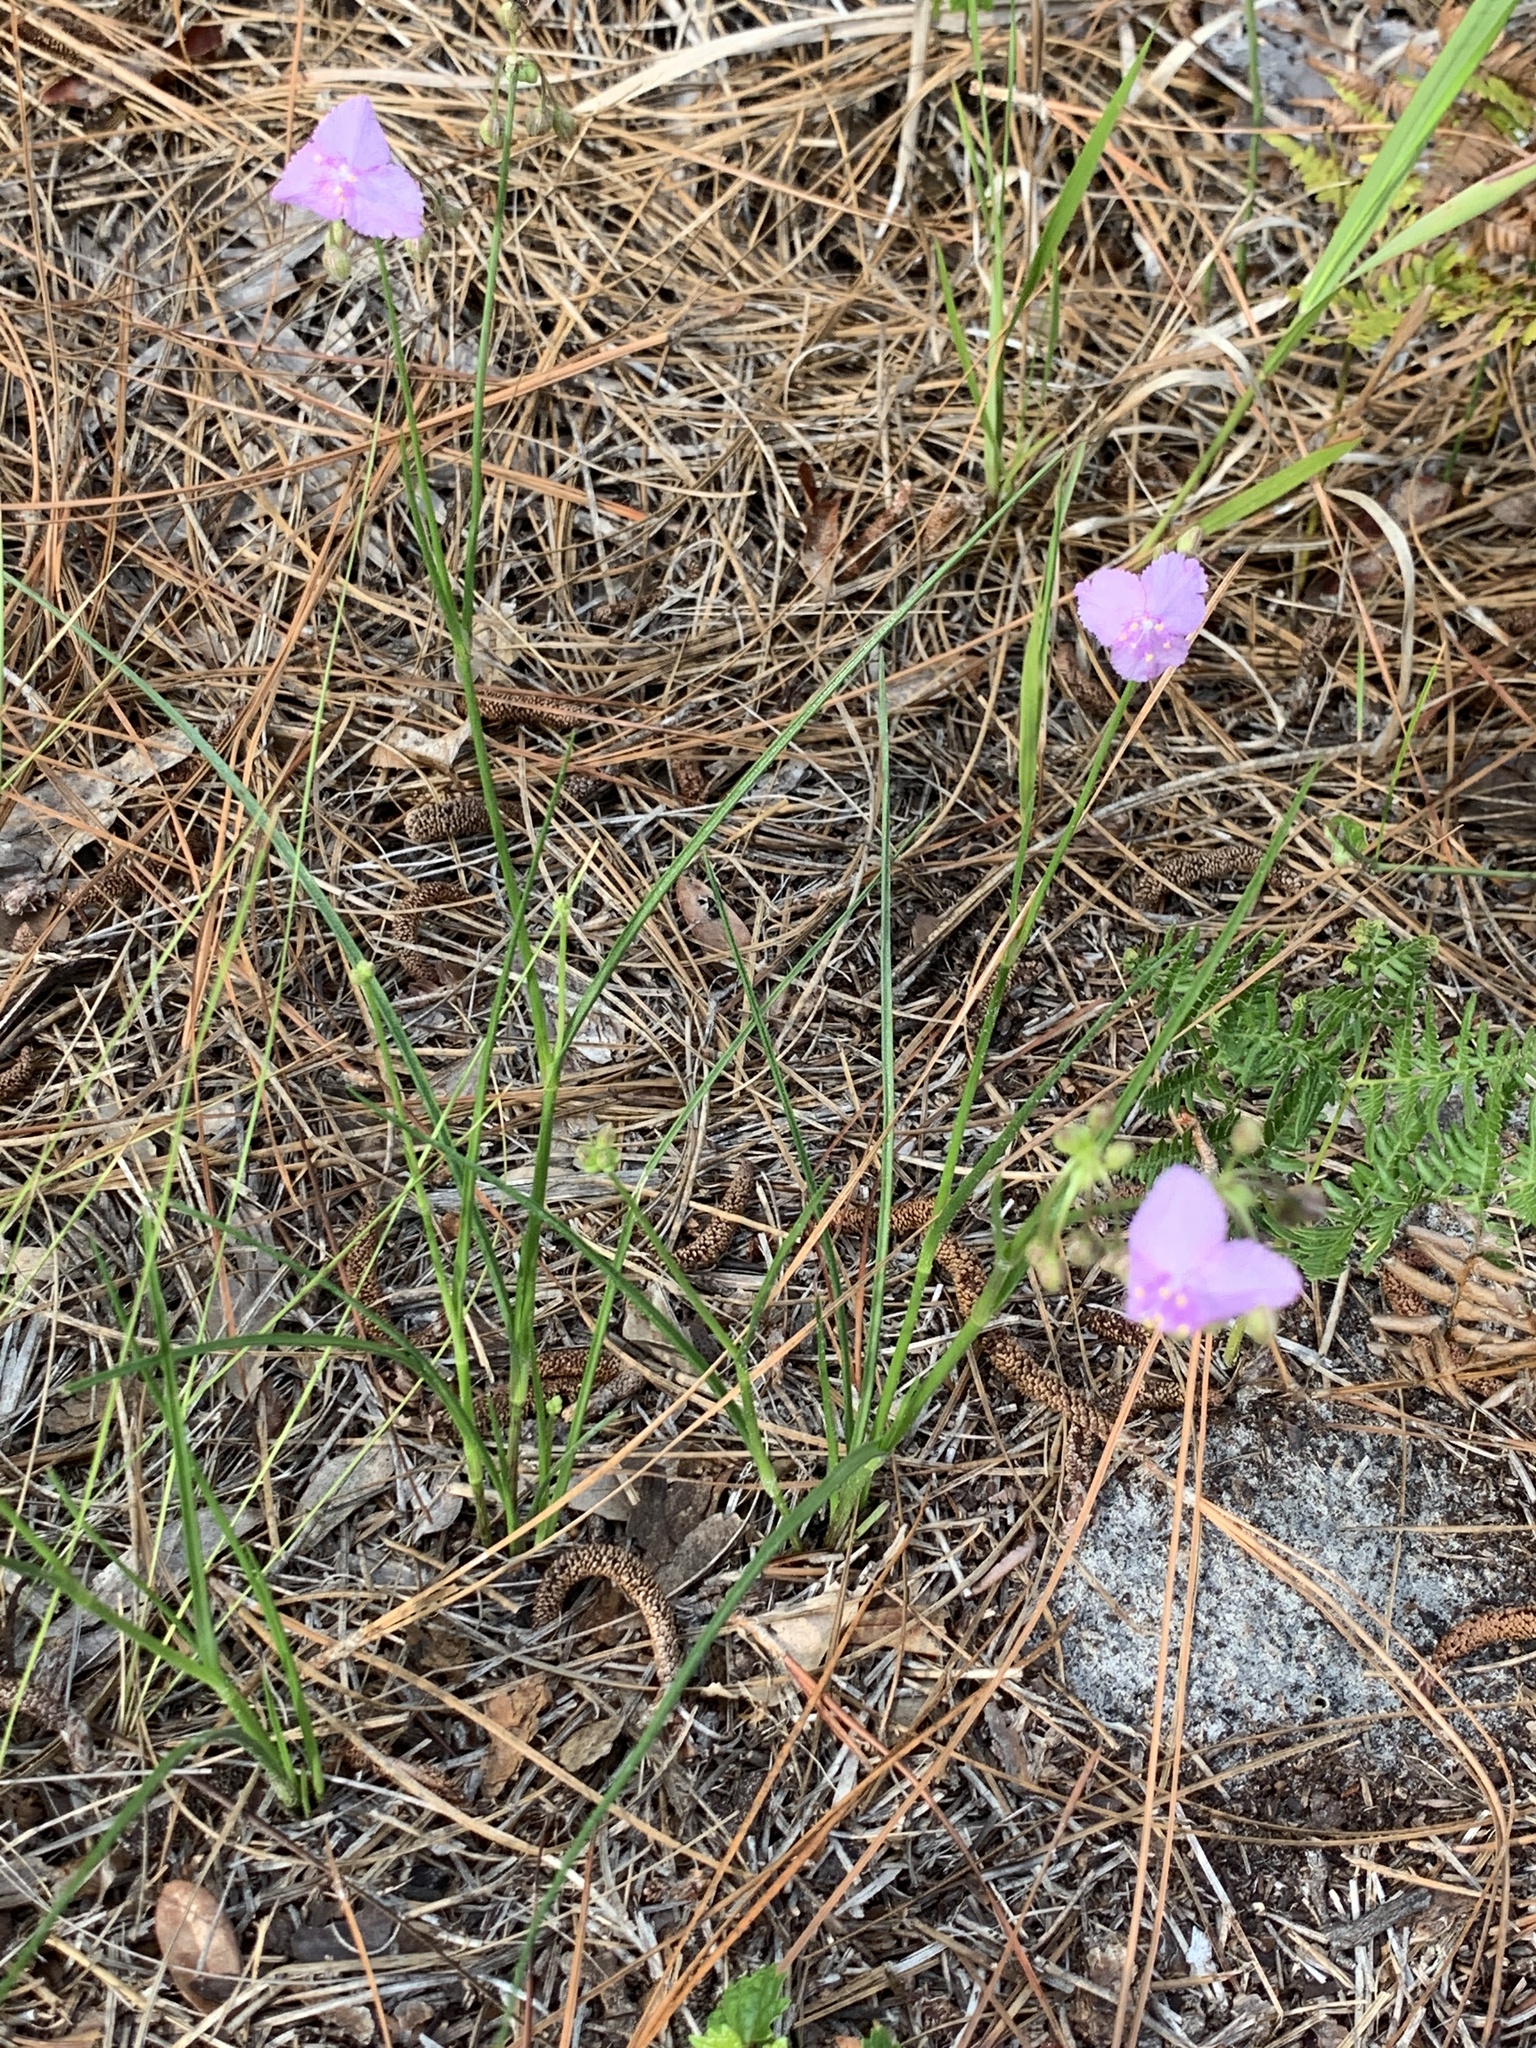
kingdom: Plantae
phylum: Tracheophyta
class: Liliopsida
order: Commelinales
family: Commelinaceae
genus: Callisia
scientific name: Callisia ornata
